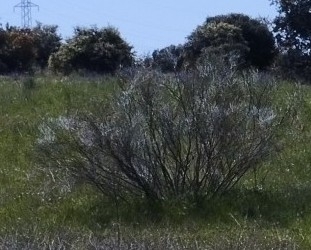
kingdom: Plantae
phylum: Tracheophyta
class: Magnoliopsida
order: Fabales
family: Fabaceae
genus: Retama
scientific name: Retama sphaerocarpa
